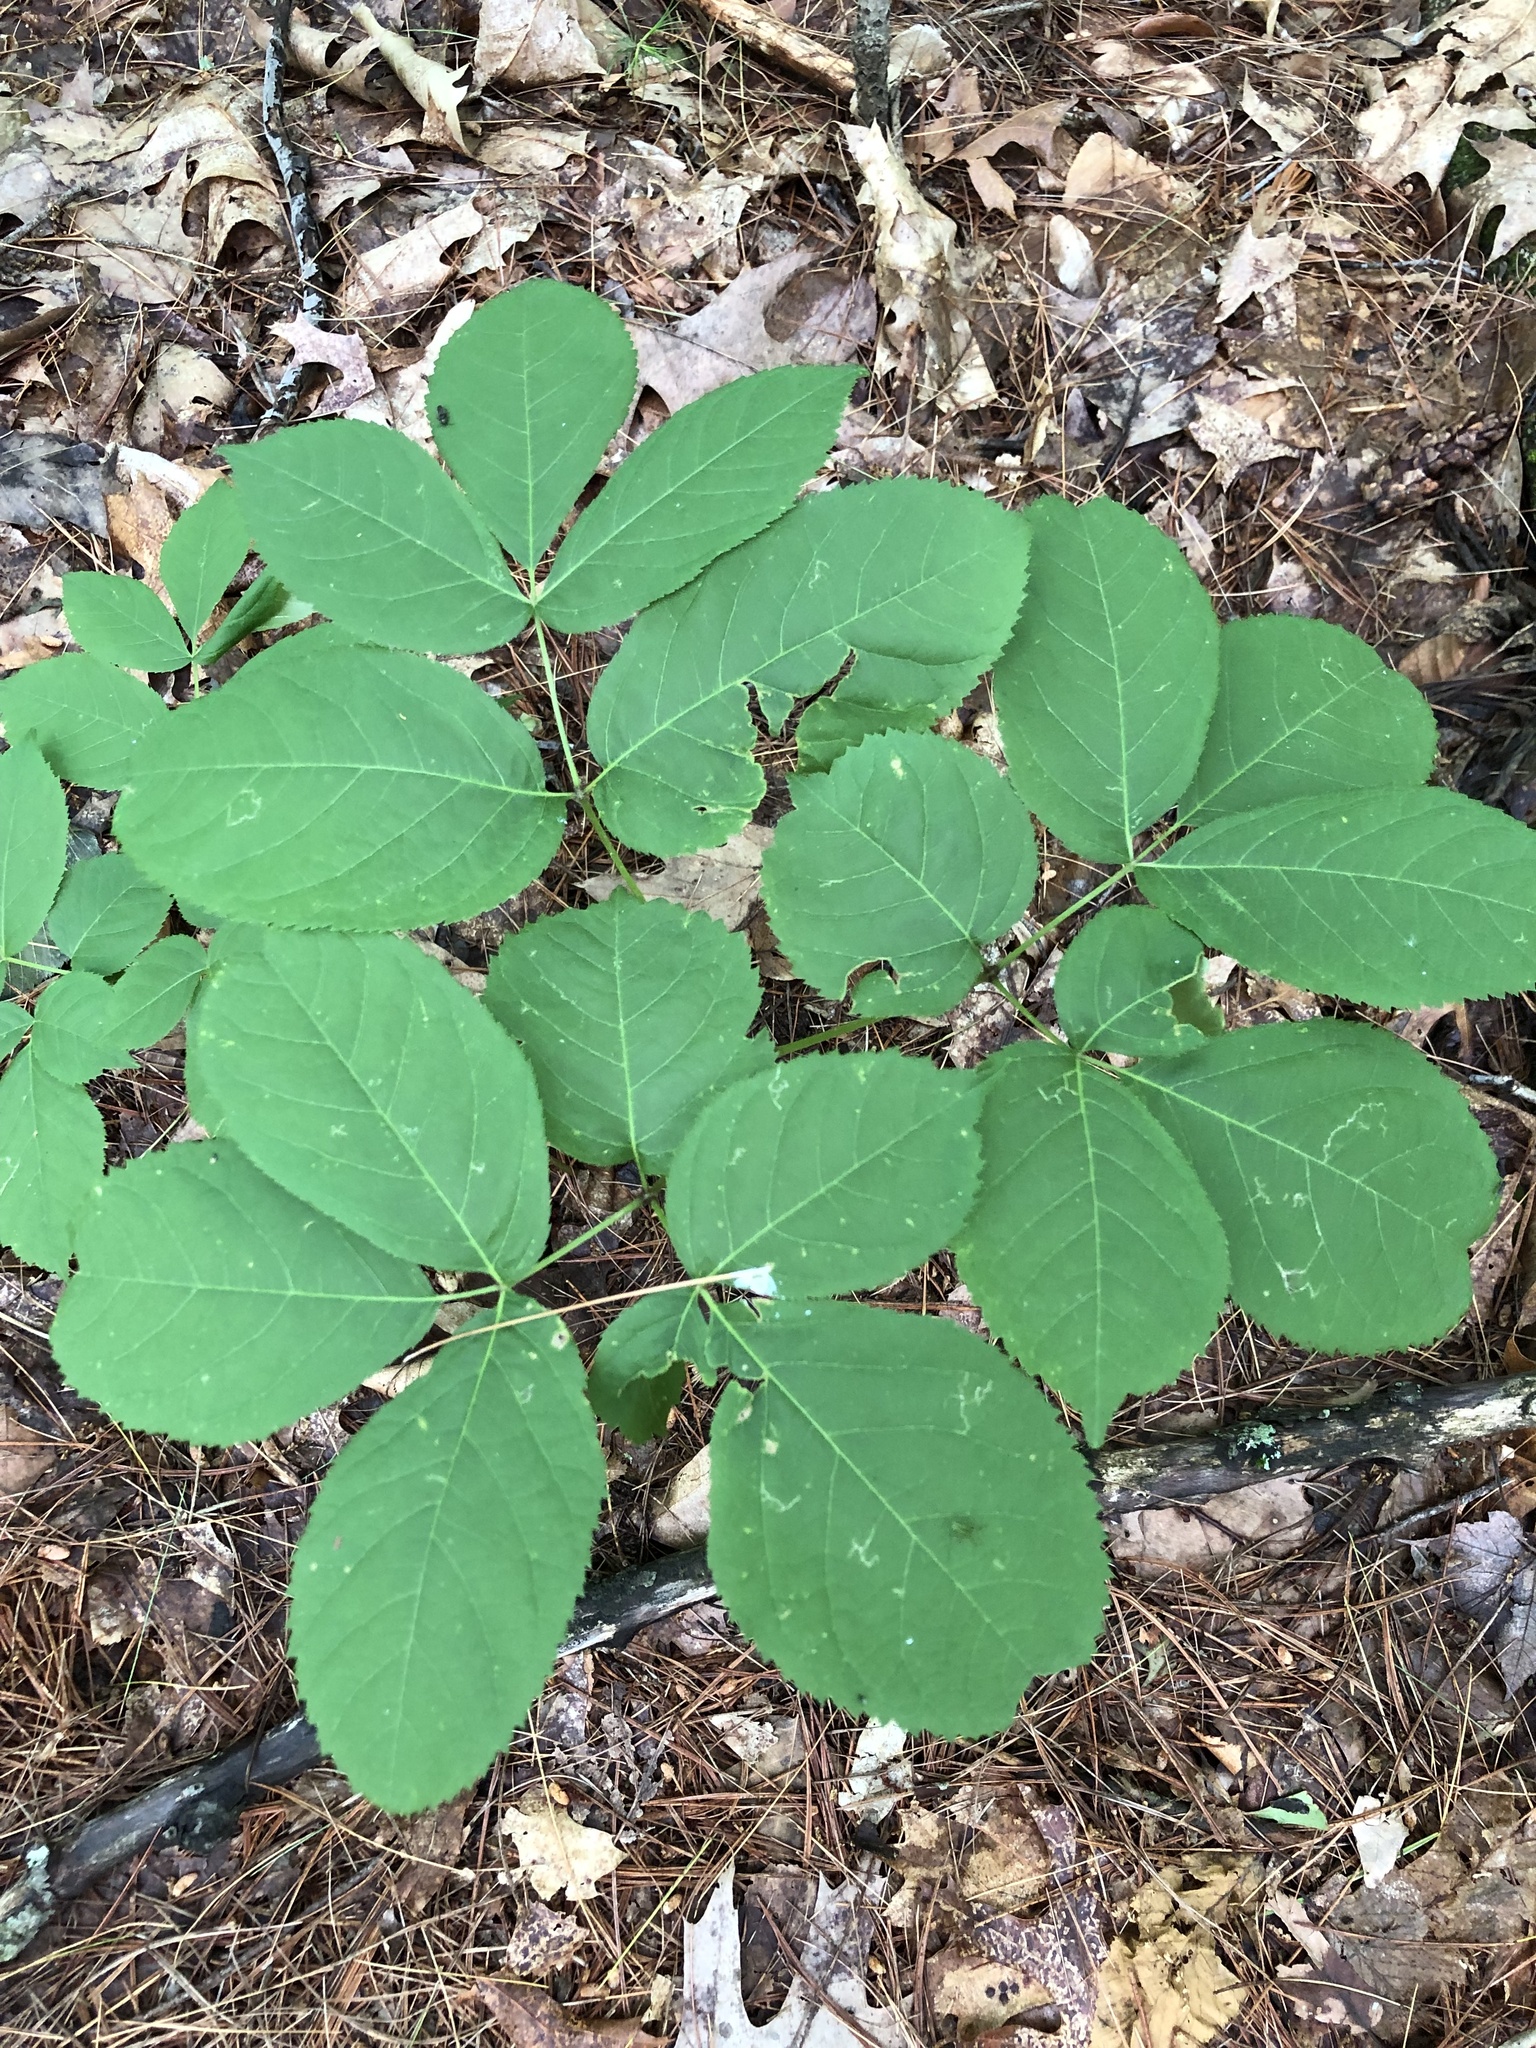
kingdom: Plantae
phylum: Tracheophyta
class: Magnoliopsida
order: Apiales
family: Araliaceae
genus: Aralia
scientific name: Aralia nudicaulis
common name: Wild sarsaparilla
